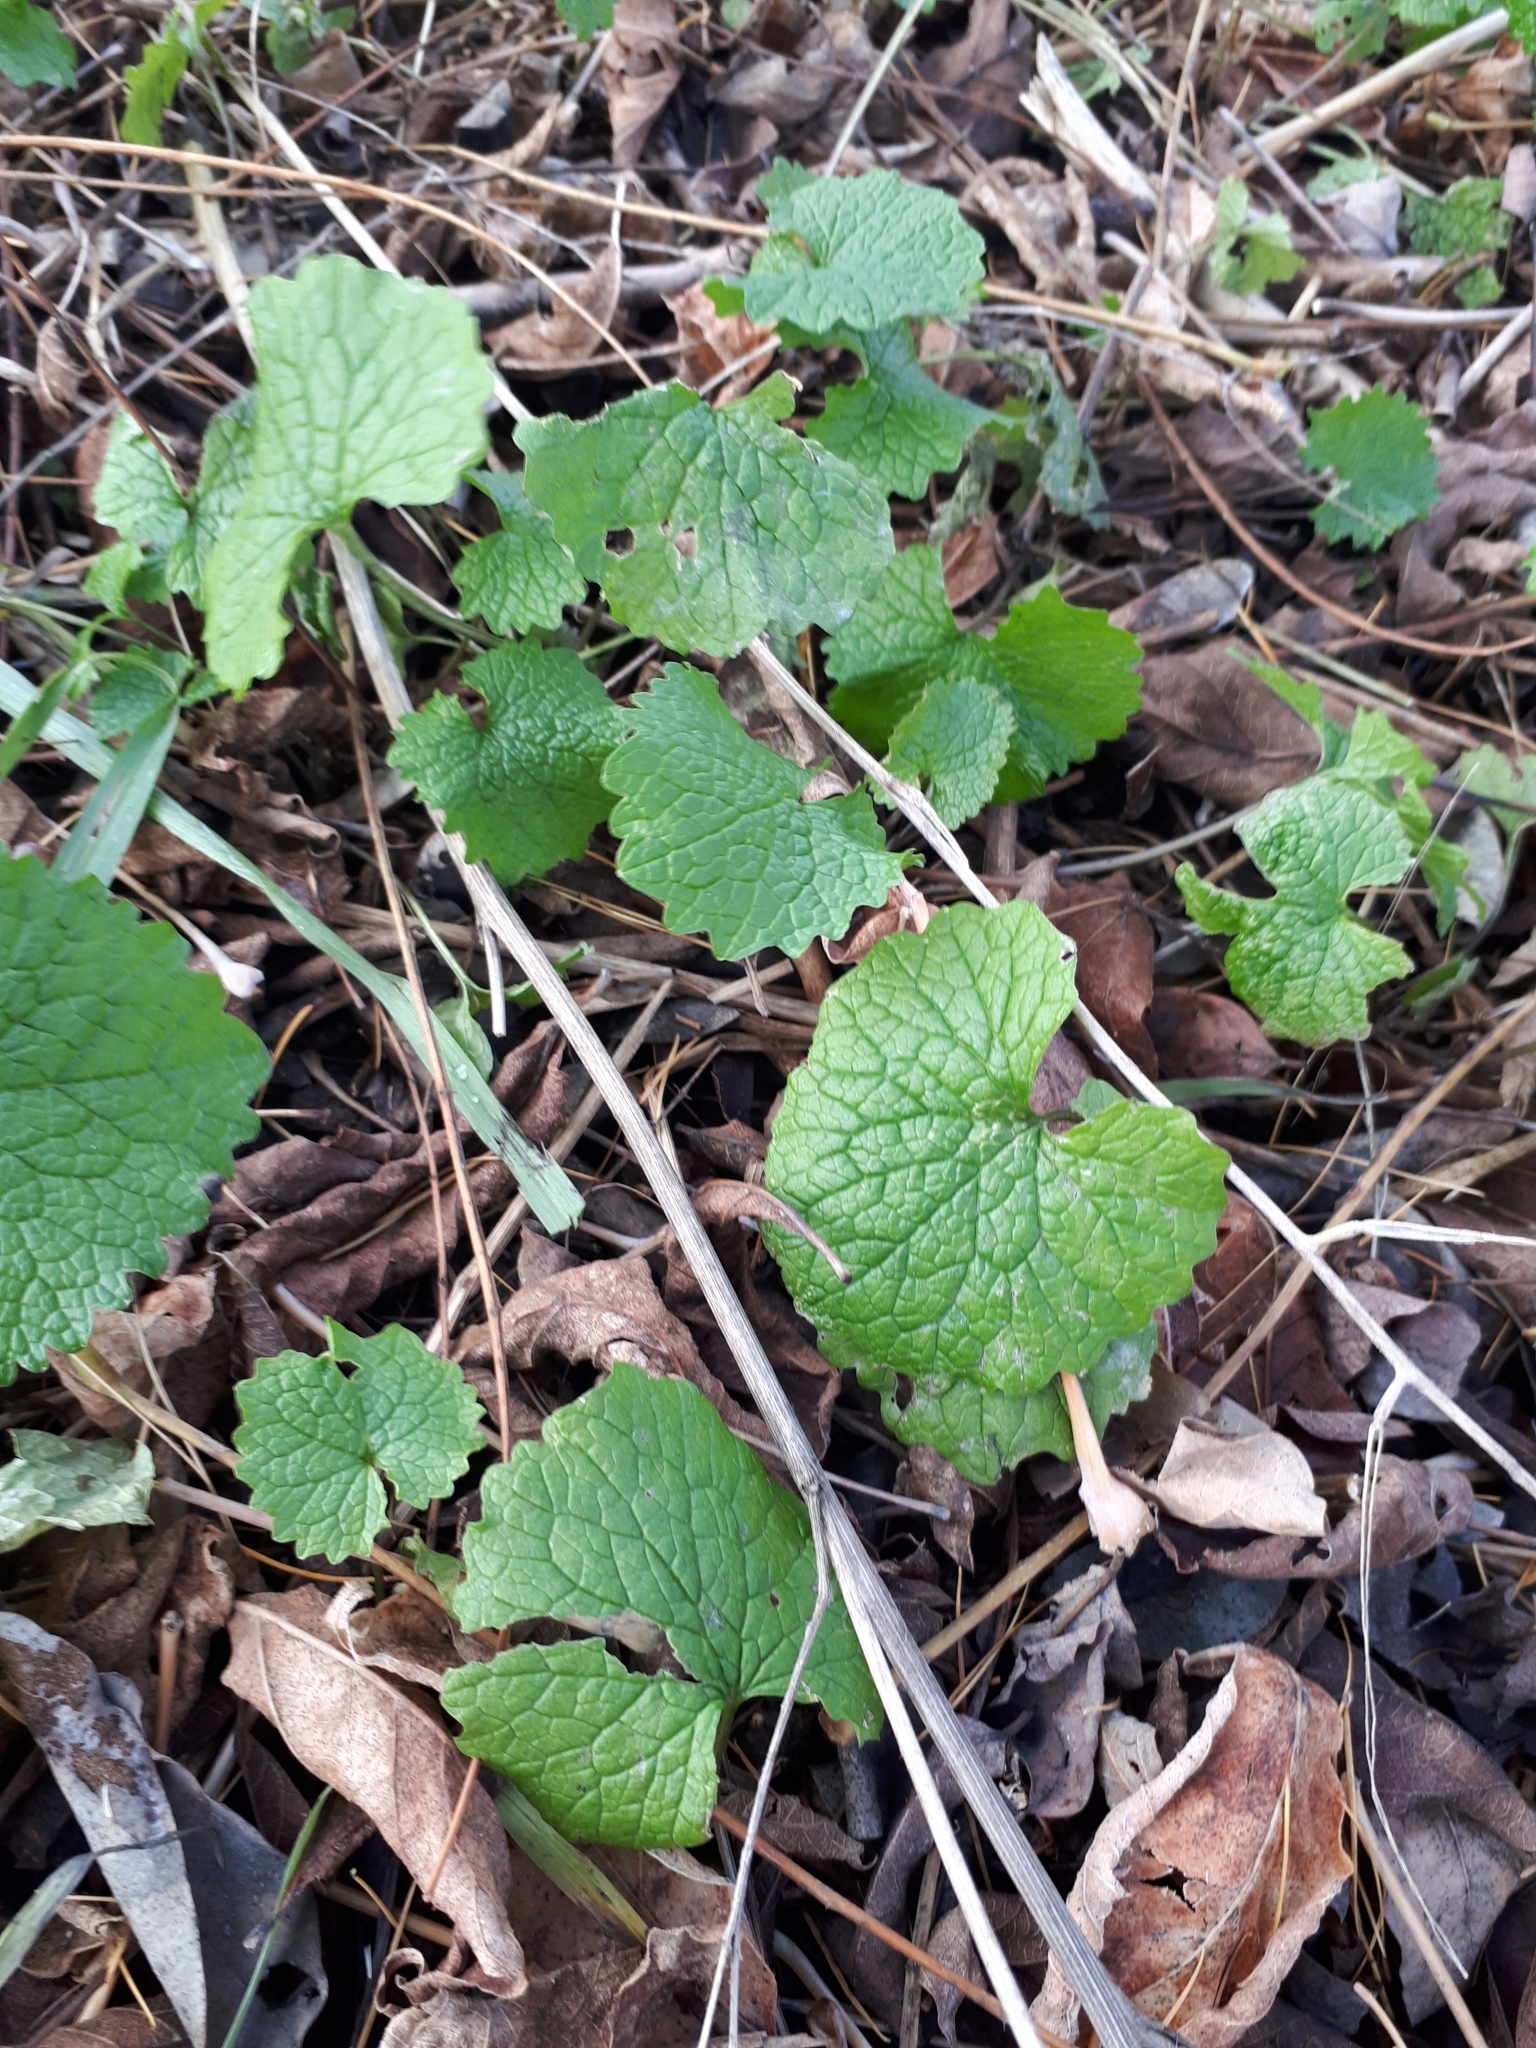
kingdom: Plantae
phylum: Tracheophyta
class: Magnoliopsida
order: Brassicales
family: Brassicaceae
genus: Alliaria
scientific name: Alliaria petiolata
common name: Garlic mustard
